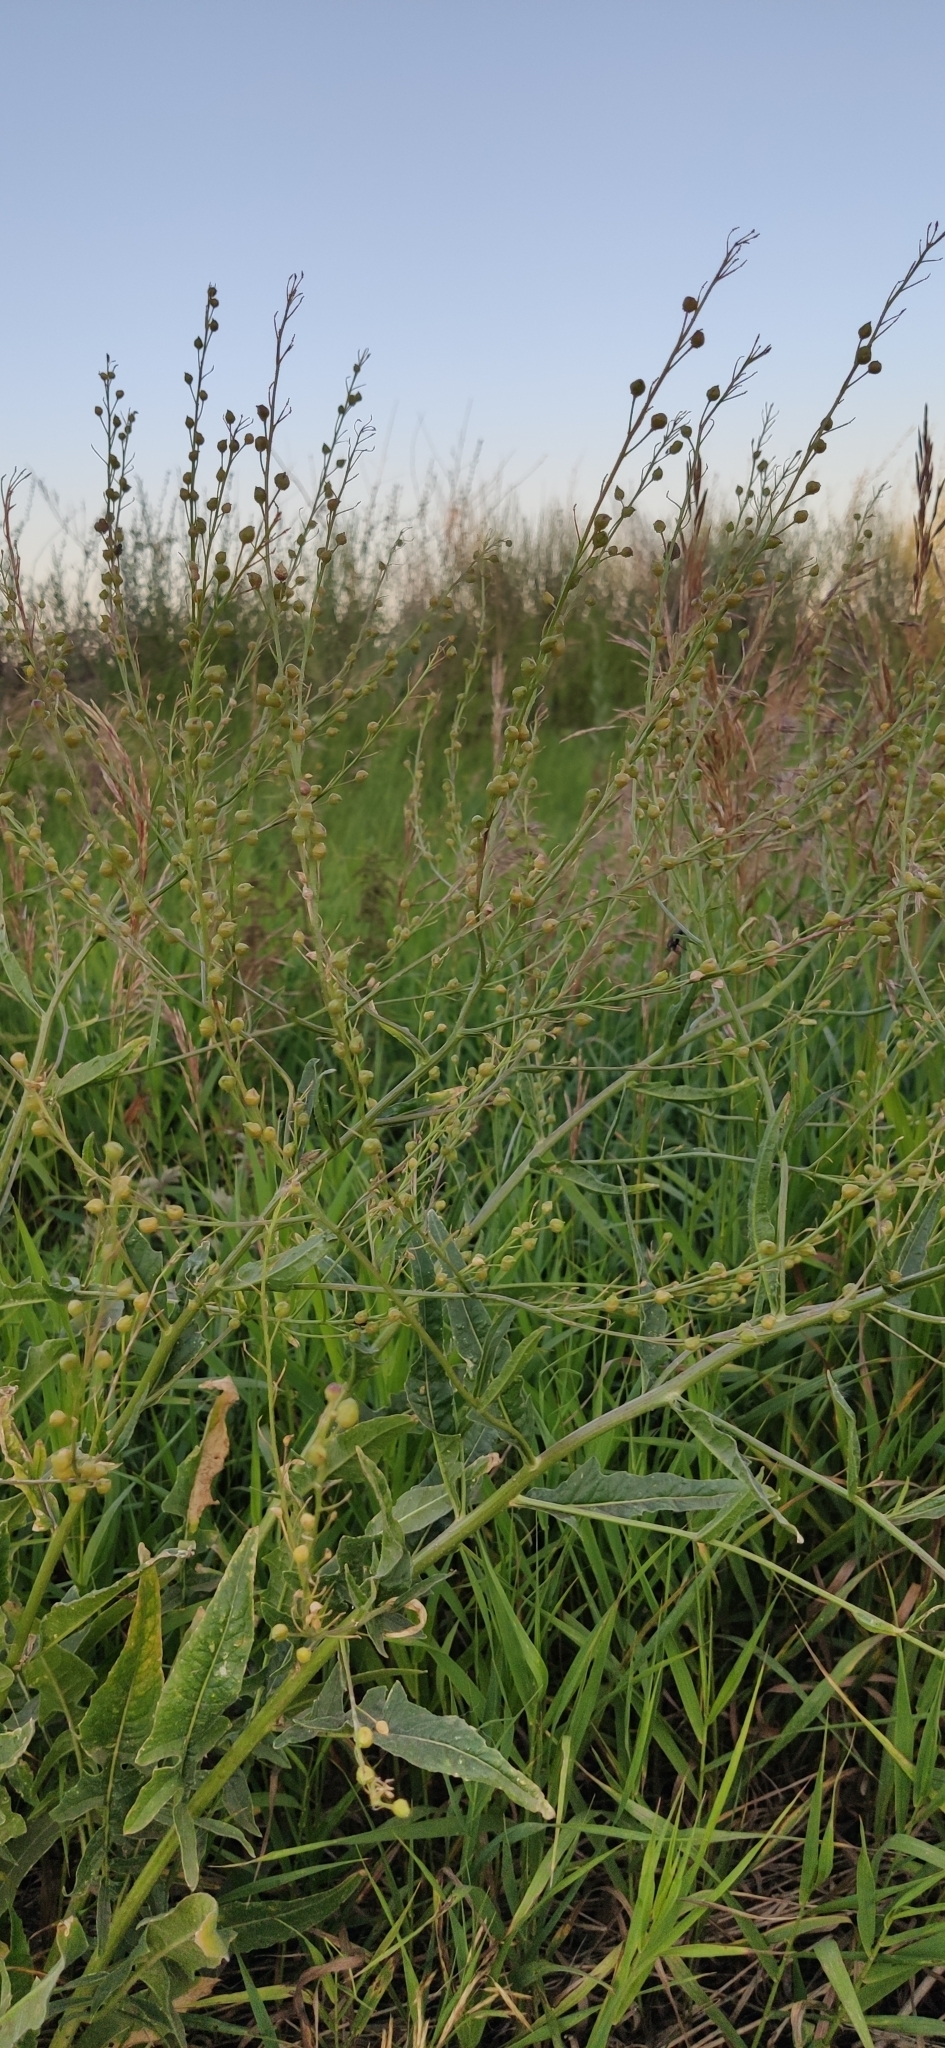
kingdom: Plantae
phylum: Tracheophyta
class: Magnoliopsida
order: Brassicales
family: Brassicaceae
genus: Bunias
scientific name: Bunias orientalis
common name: Warty-cabbage
